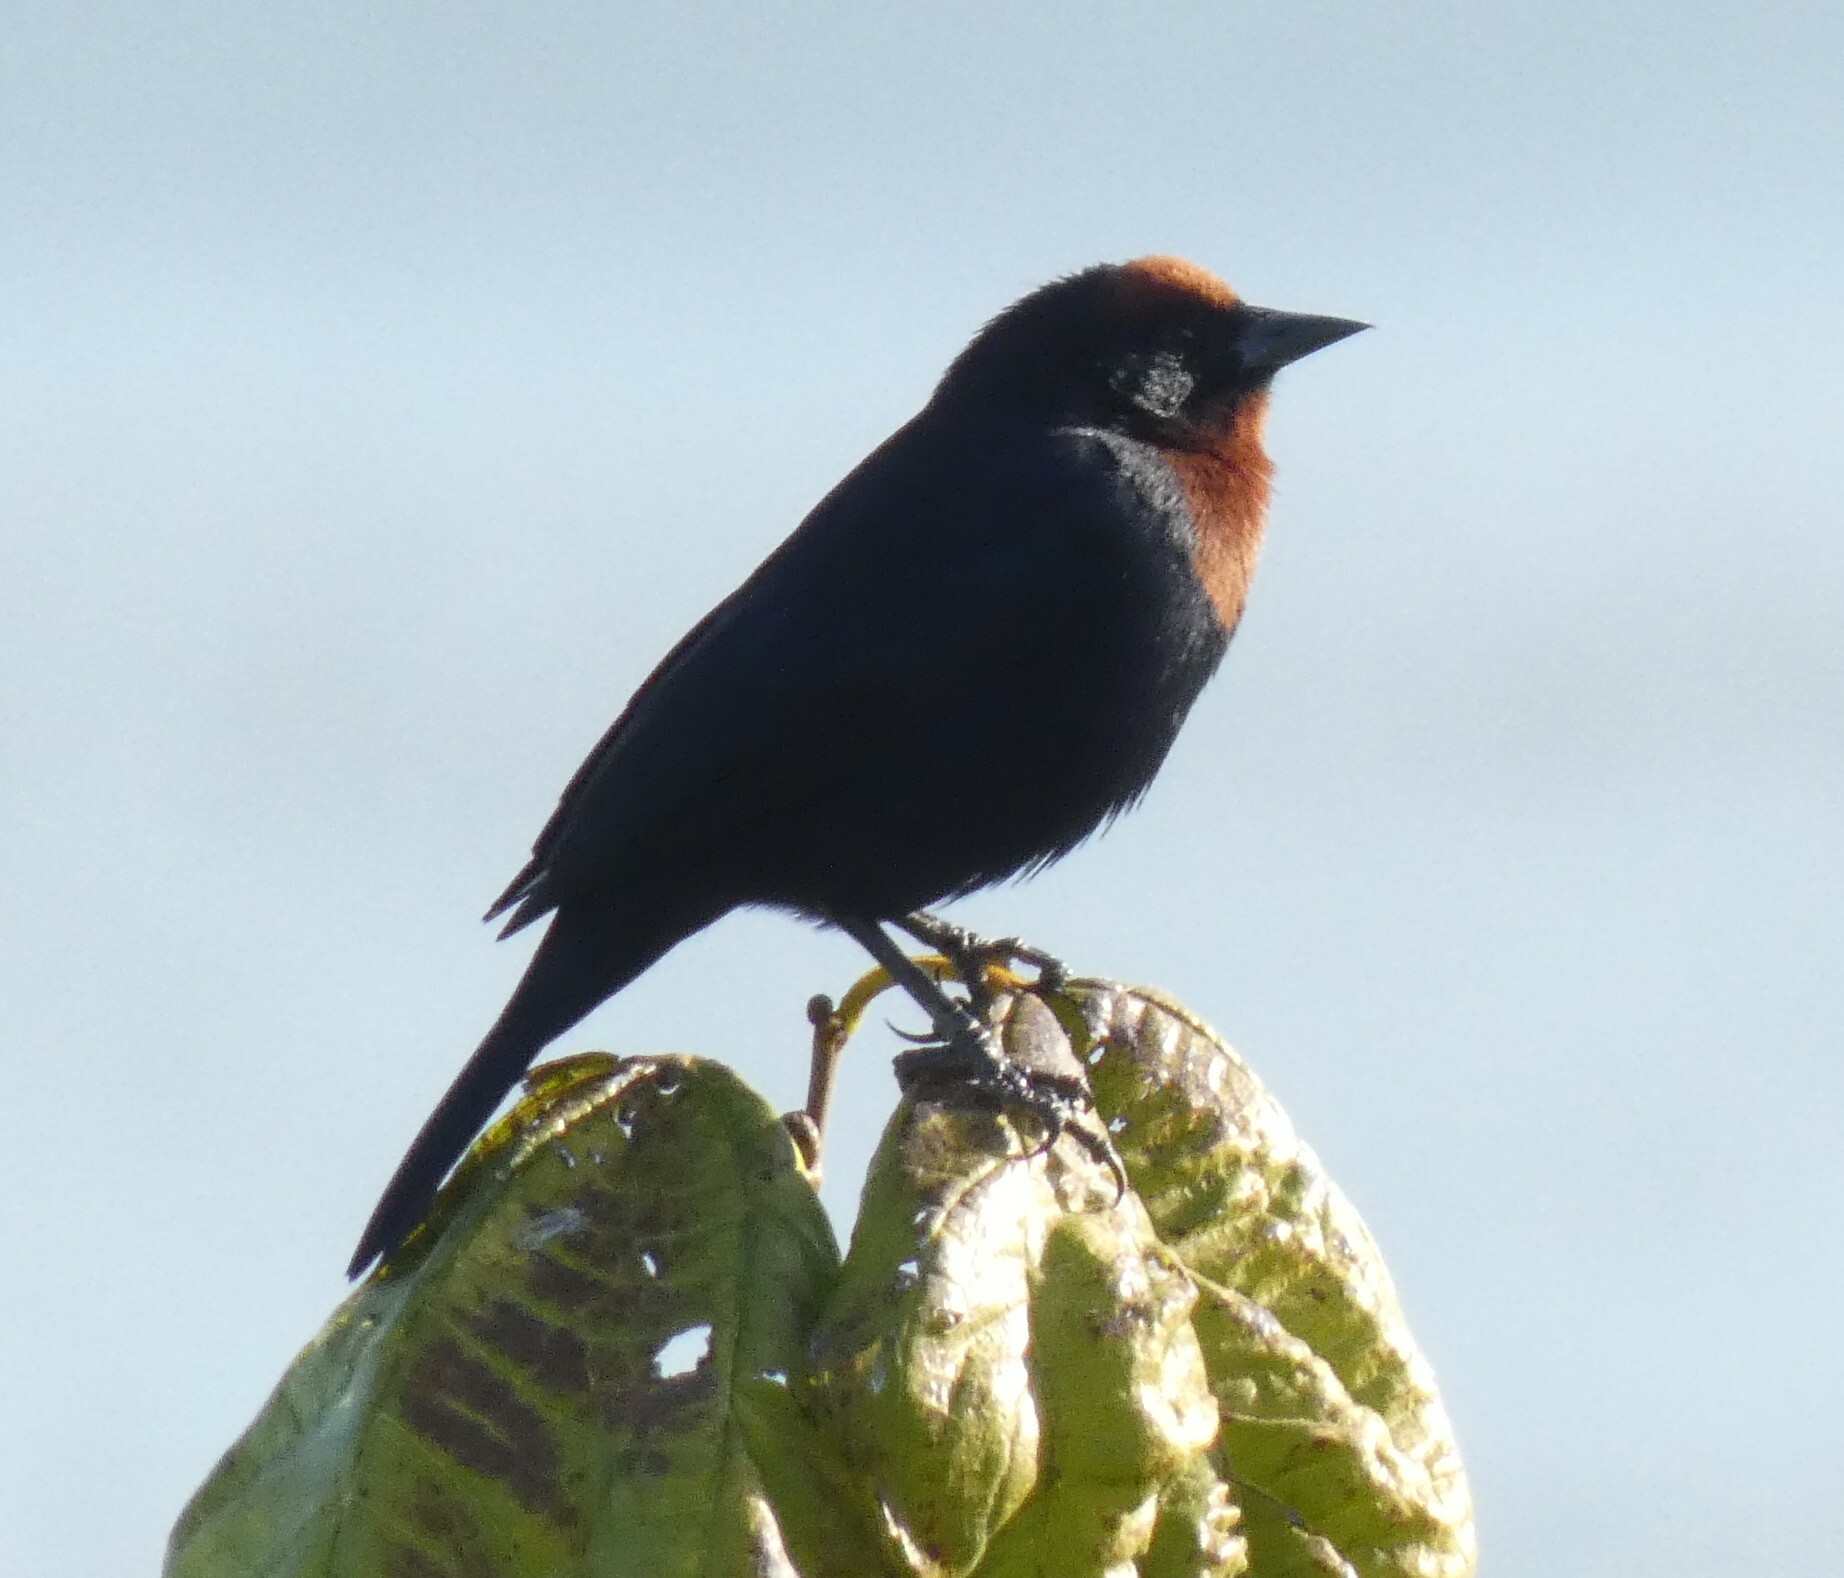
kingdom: Animalia
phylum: Chordata
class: Aves
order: Passeriformes
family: Icteridae
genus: Chrysomus
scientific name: Chrysomus ruficapillus
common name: Chestnut-capped blackbird
